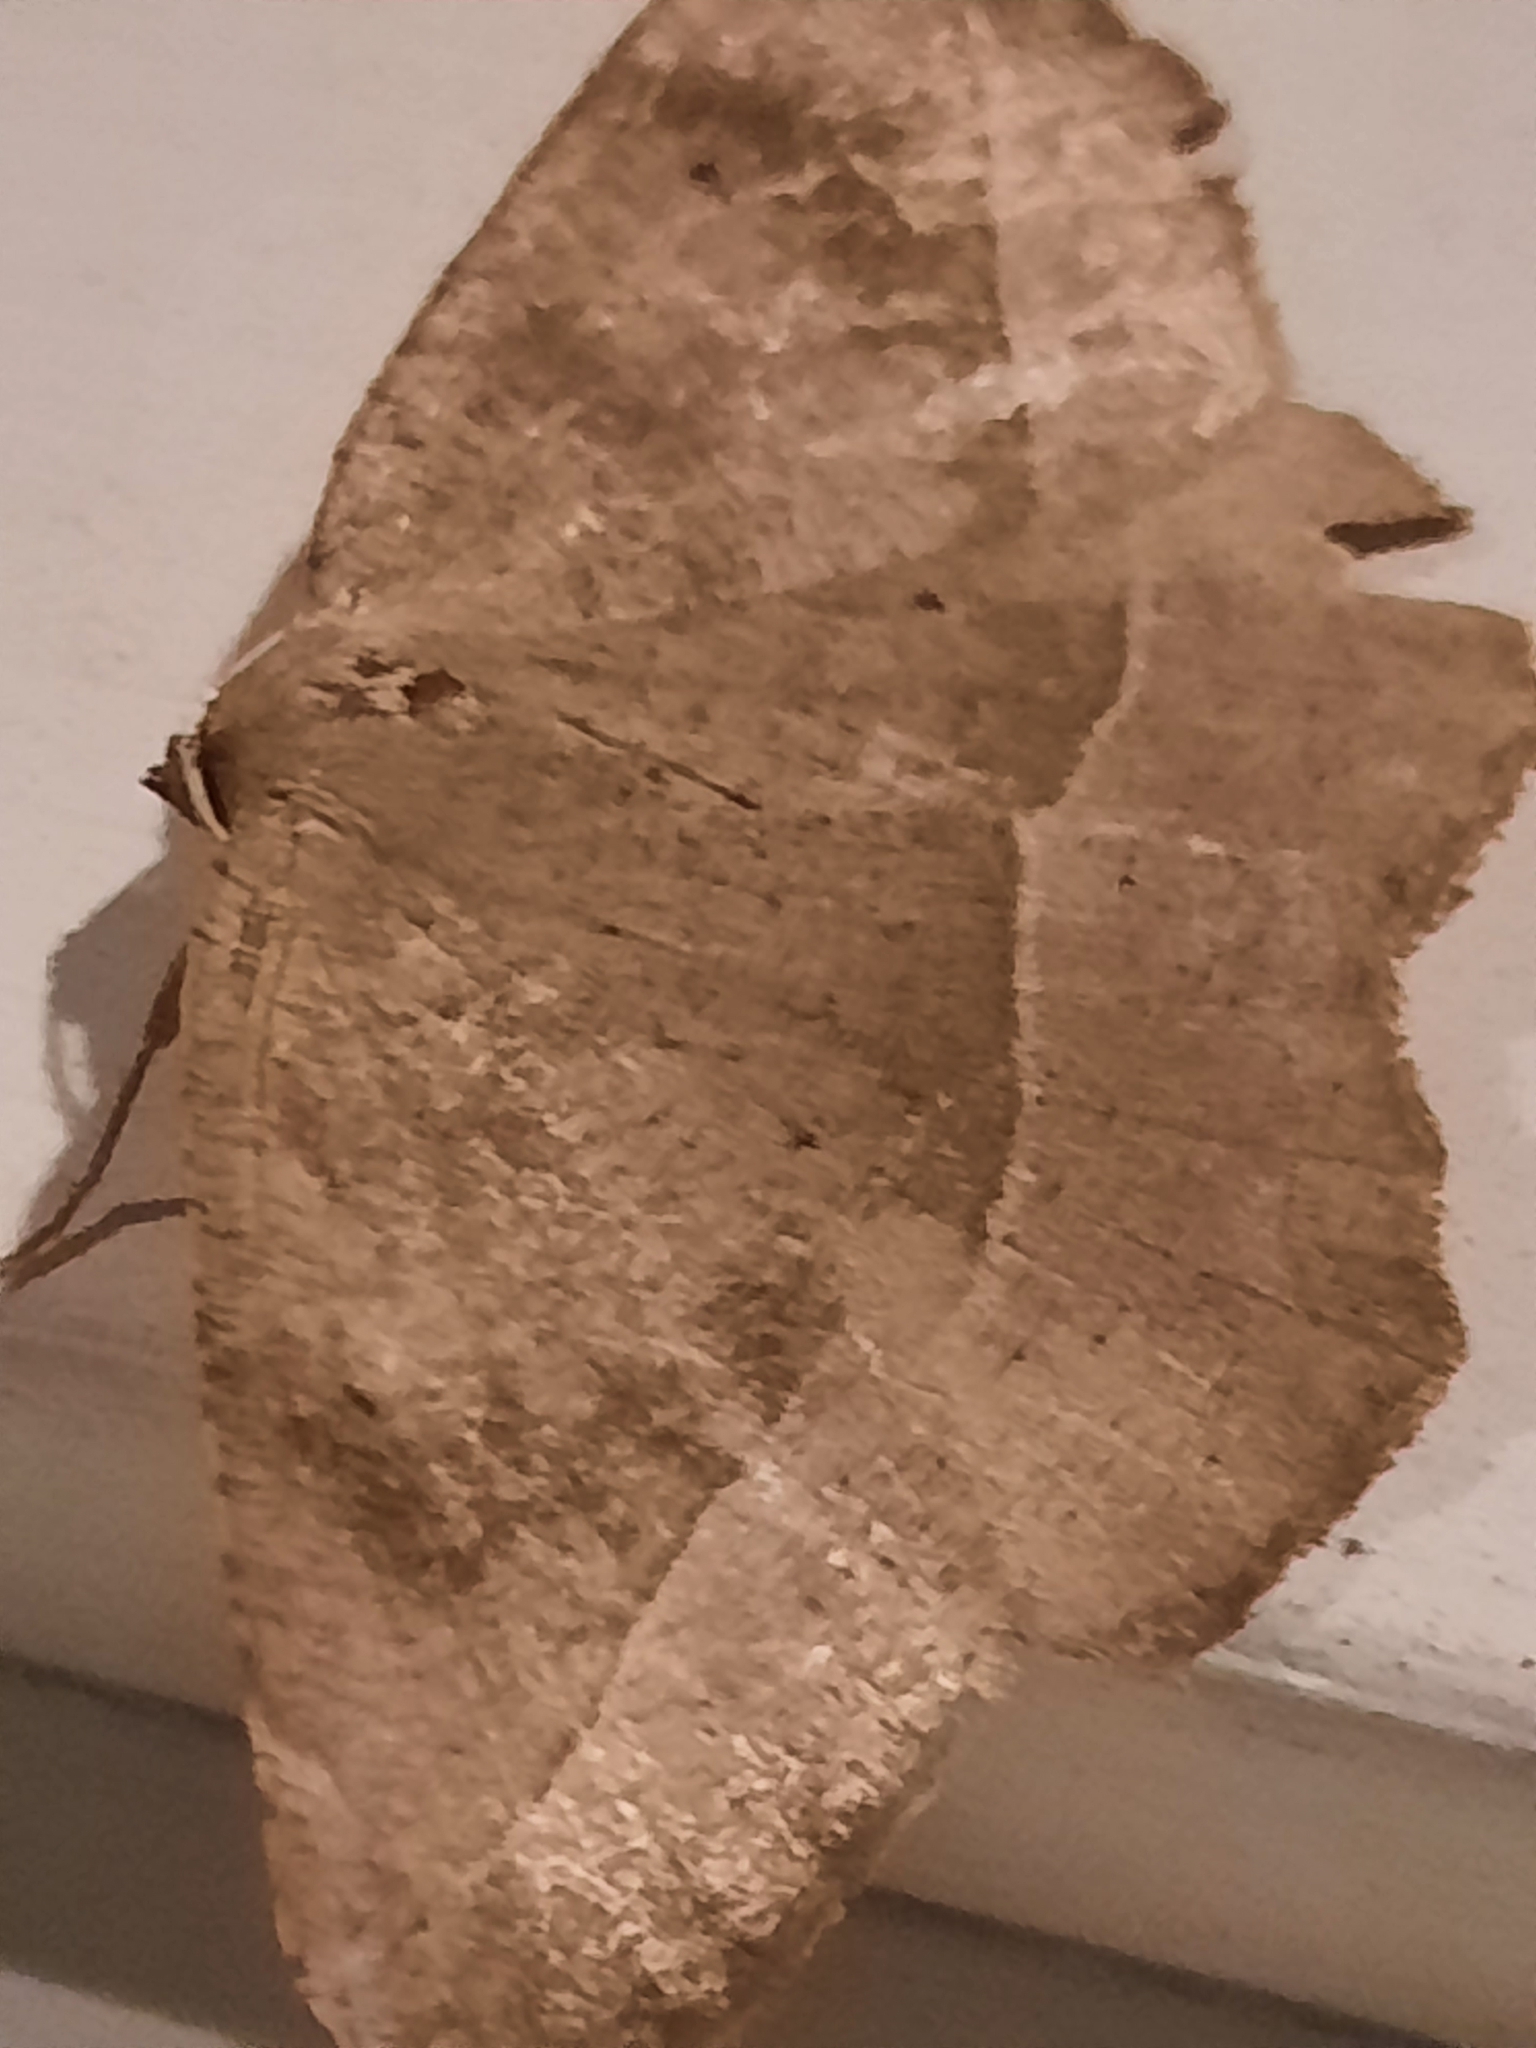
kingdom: Animalia
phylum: Arthropoda
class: Insecta
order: Lepidoptera
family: Geometridae
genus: Eutrapela
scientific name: Eutrapela clemataria
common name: Curved-toothed geometer
